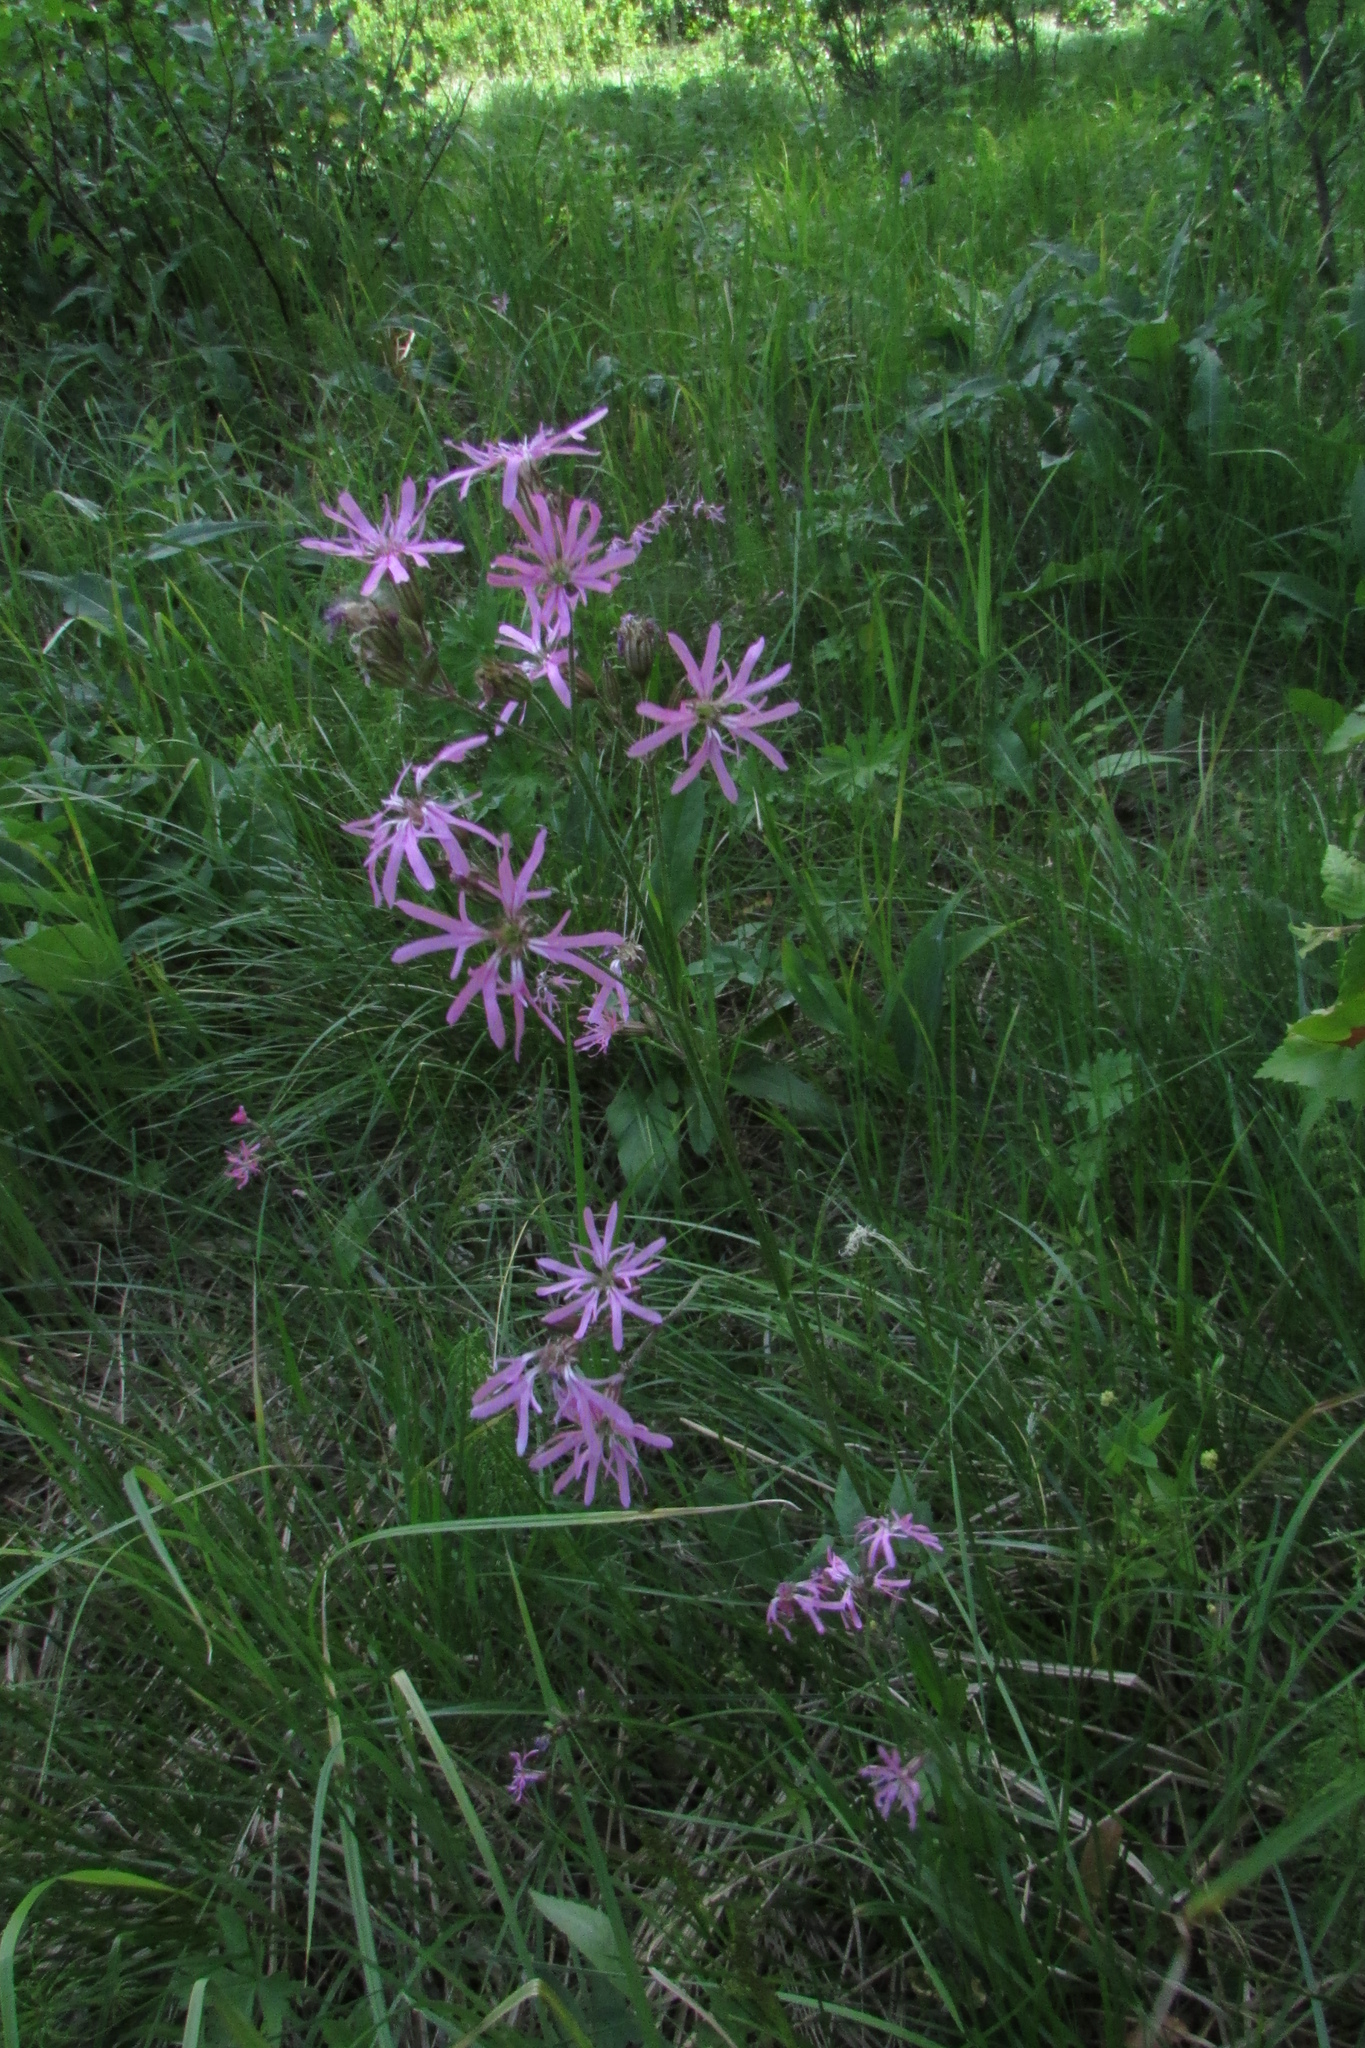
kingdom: Plantae
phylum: Tracheophyta
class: Magnoliopsida
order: Caryophyllales
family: Caryophyllaceae
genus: Silene
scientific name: Silene flos-cuculi
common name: Ragged-robin
